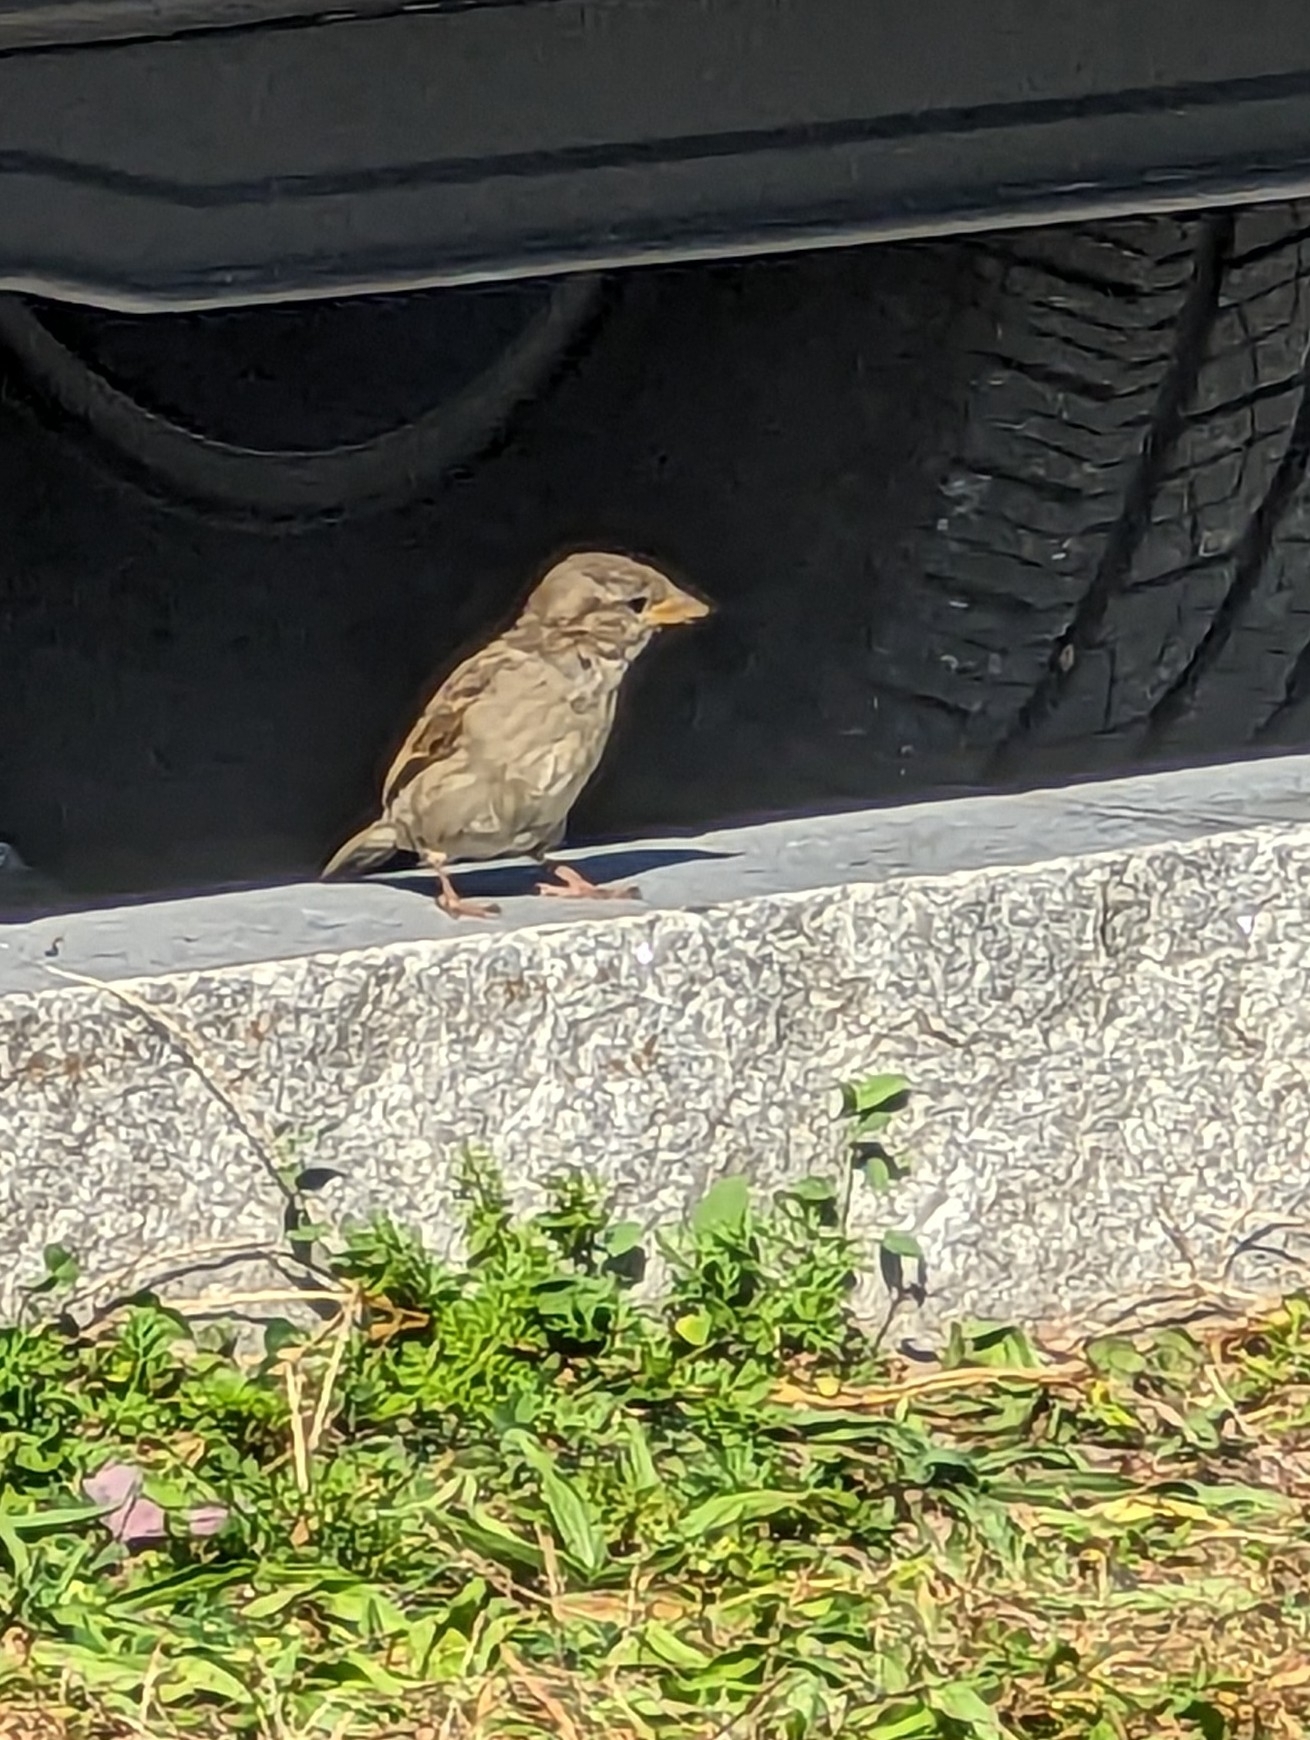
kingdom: Animalia
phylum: Chordata
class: Aves
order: Passeriformes
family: Passeridae
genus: Passer
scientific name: Passer domesticus
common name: House sparrow
